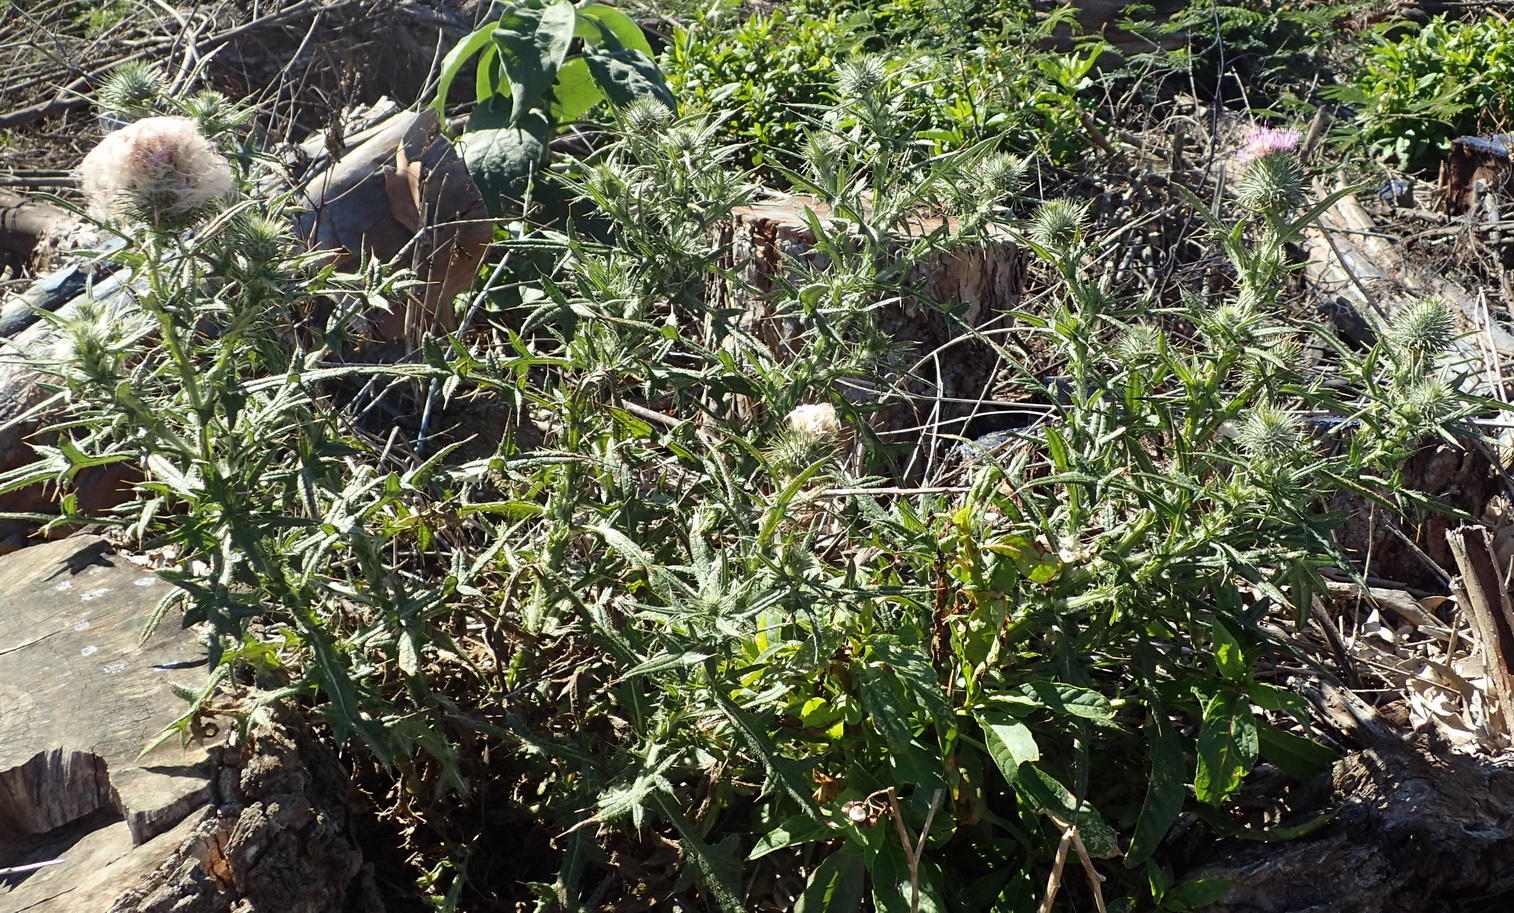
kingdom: Plantae
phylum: Tracheophyta
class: Magnoliopsida
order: Asterales
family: Asteraceae
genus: Cirsium
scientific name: Cirsium vulgare
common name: Bull thistle
